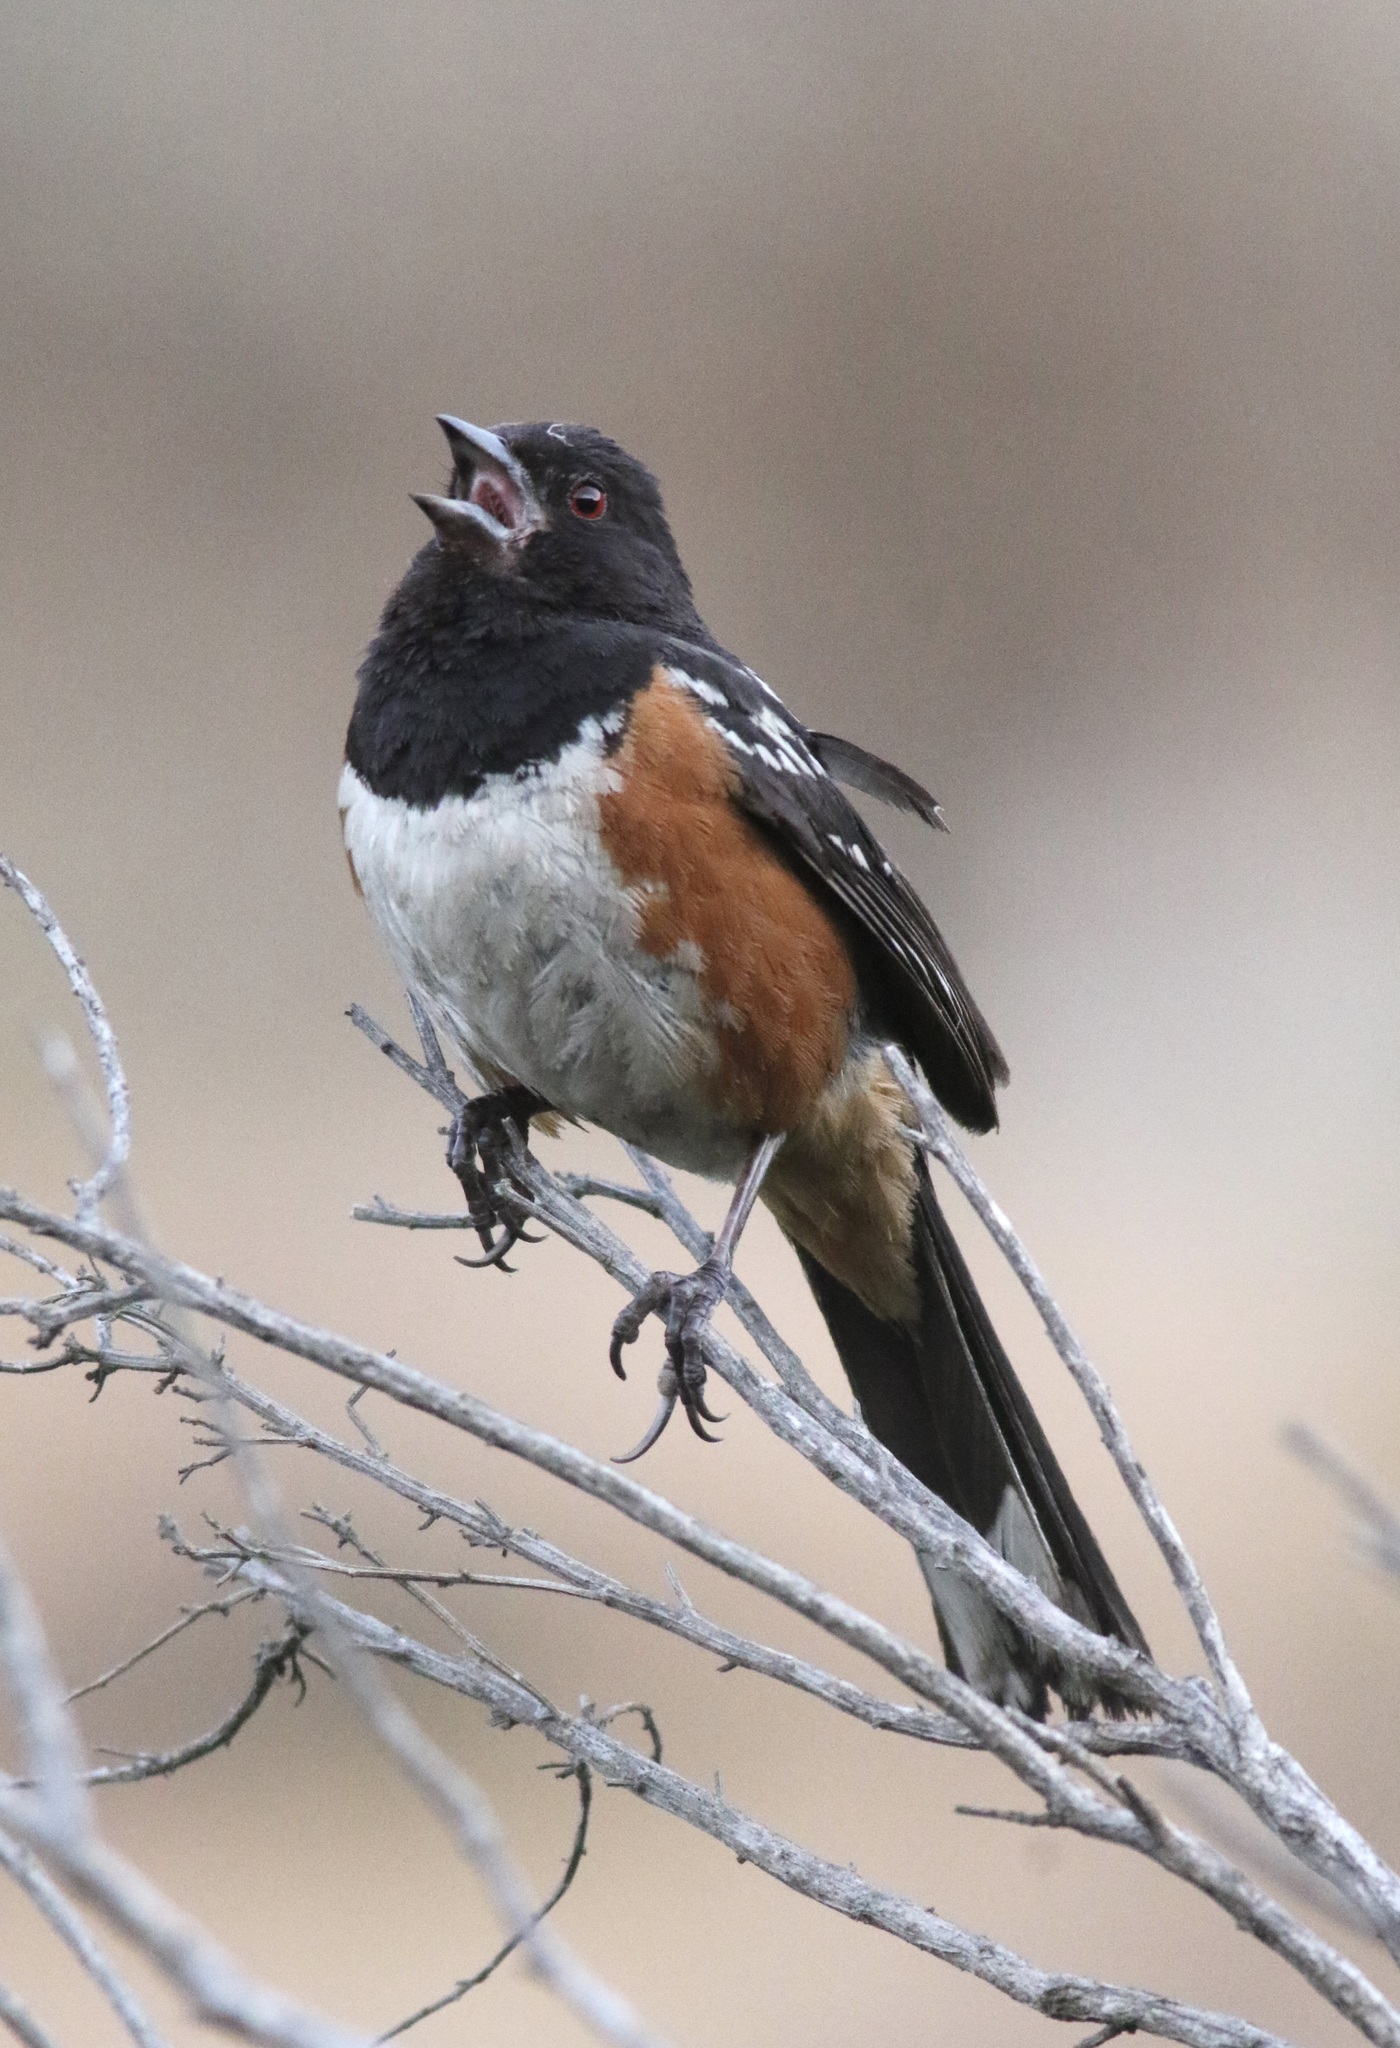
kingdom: Animalia
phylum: Chordata
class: Aves
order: Passeriformes
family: Passerellidae
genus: Pipilo
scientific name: Pipilo maculatus
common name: Spotted towhee
